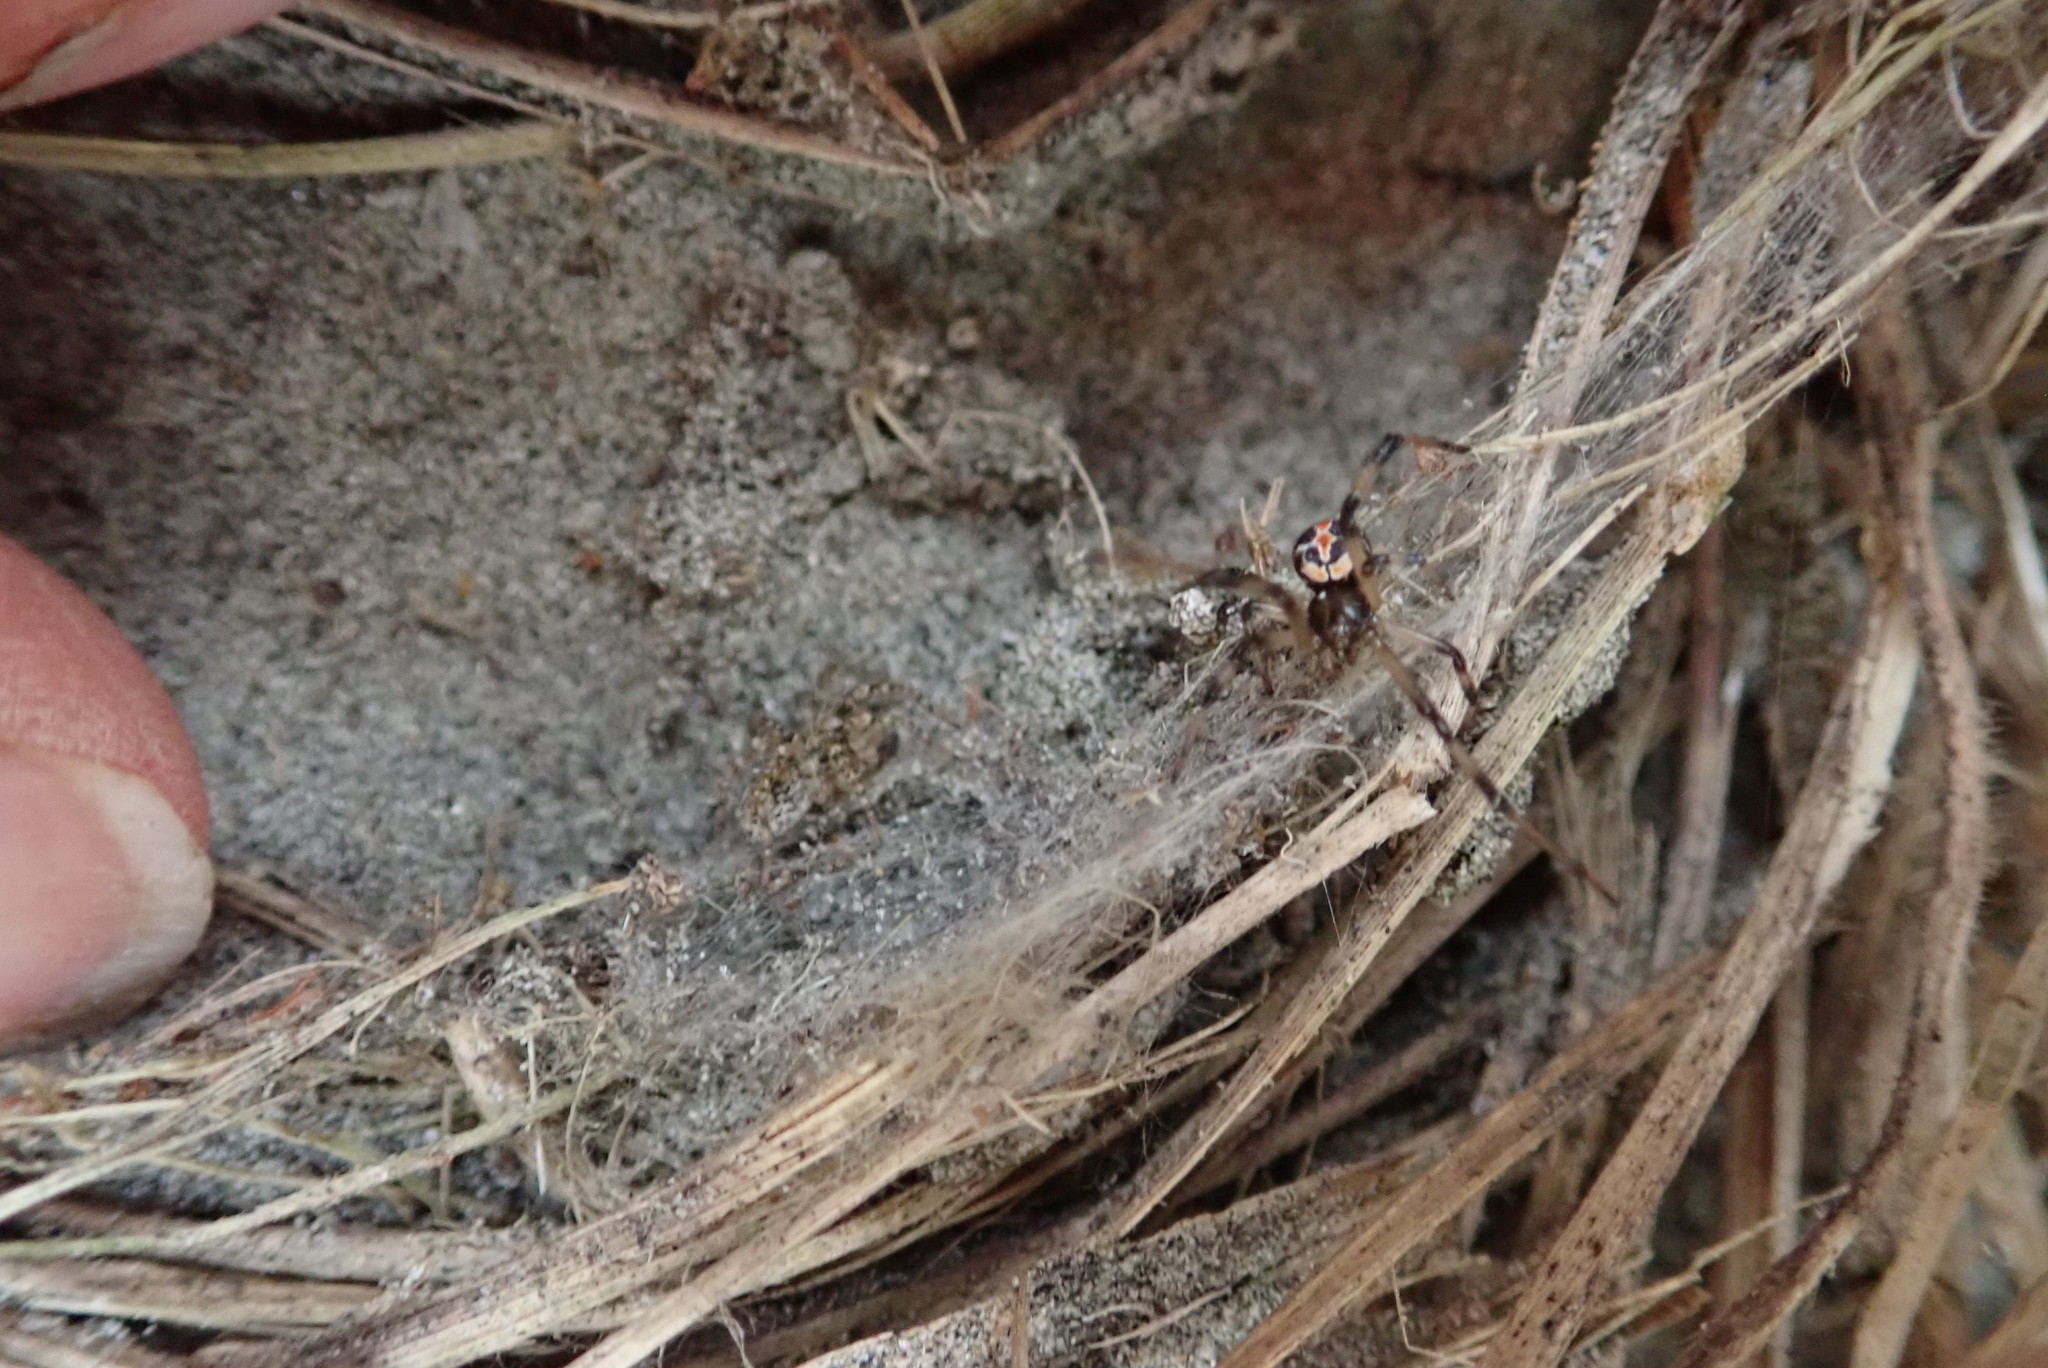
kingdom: Animalia
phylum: Arthropoda
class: Arachnida
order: Araneae
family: Theridiidae
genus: Latrodectus
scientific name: Latrodectus katipo
